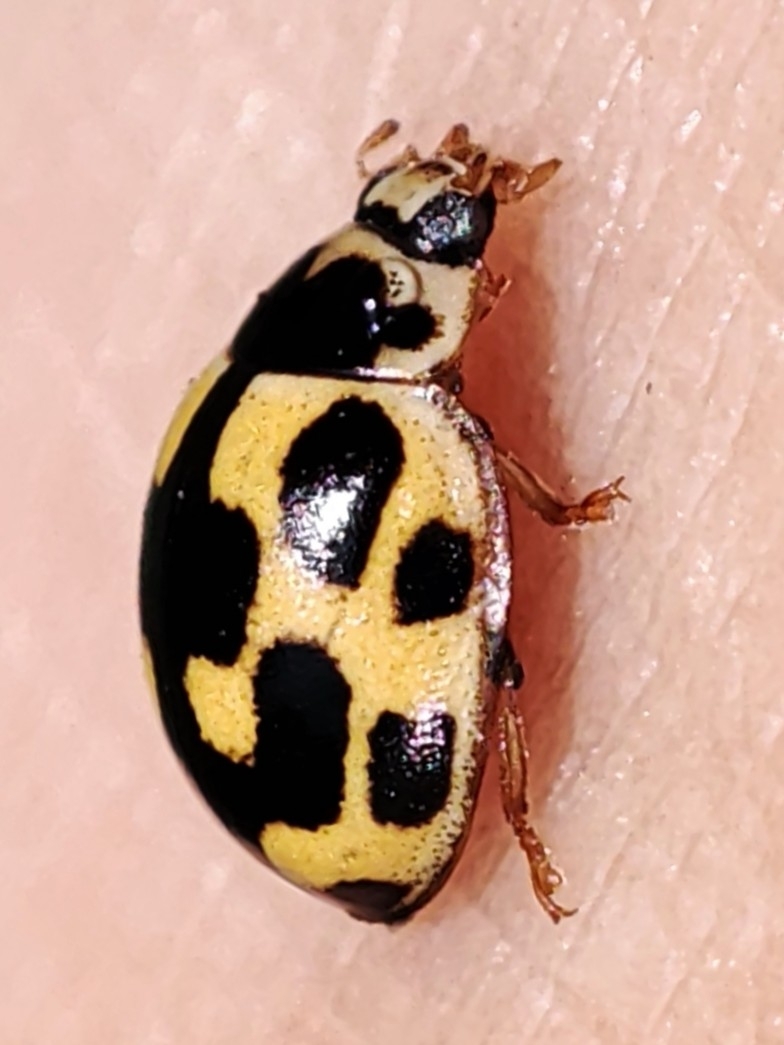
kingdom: Animalia
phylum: Arthropoda
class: Insecta
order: Coleoptera
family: Coccinellidae
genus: Propylaea
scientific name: Propylaea quatuordecimpunctata
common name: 14-spotted ladybird beetle
